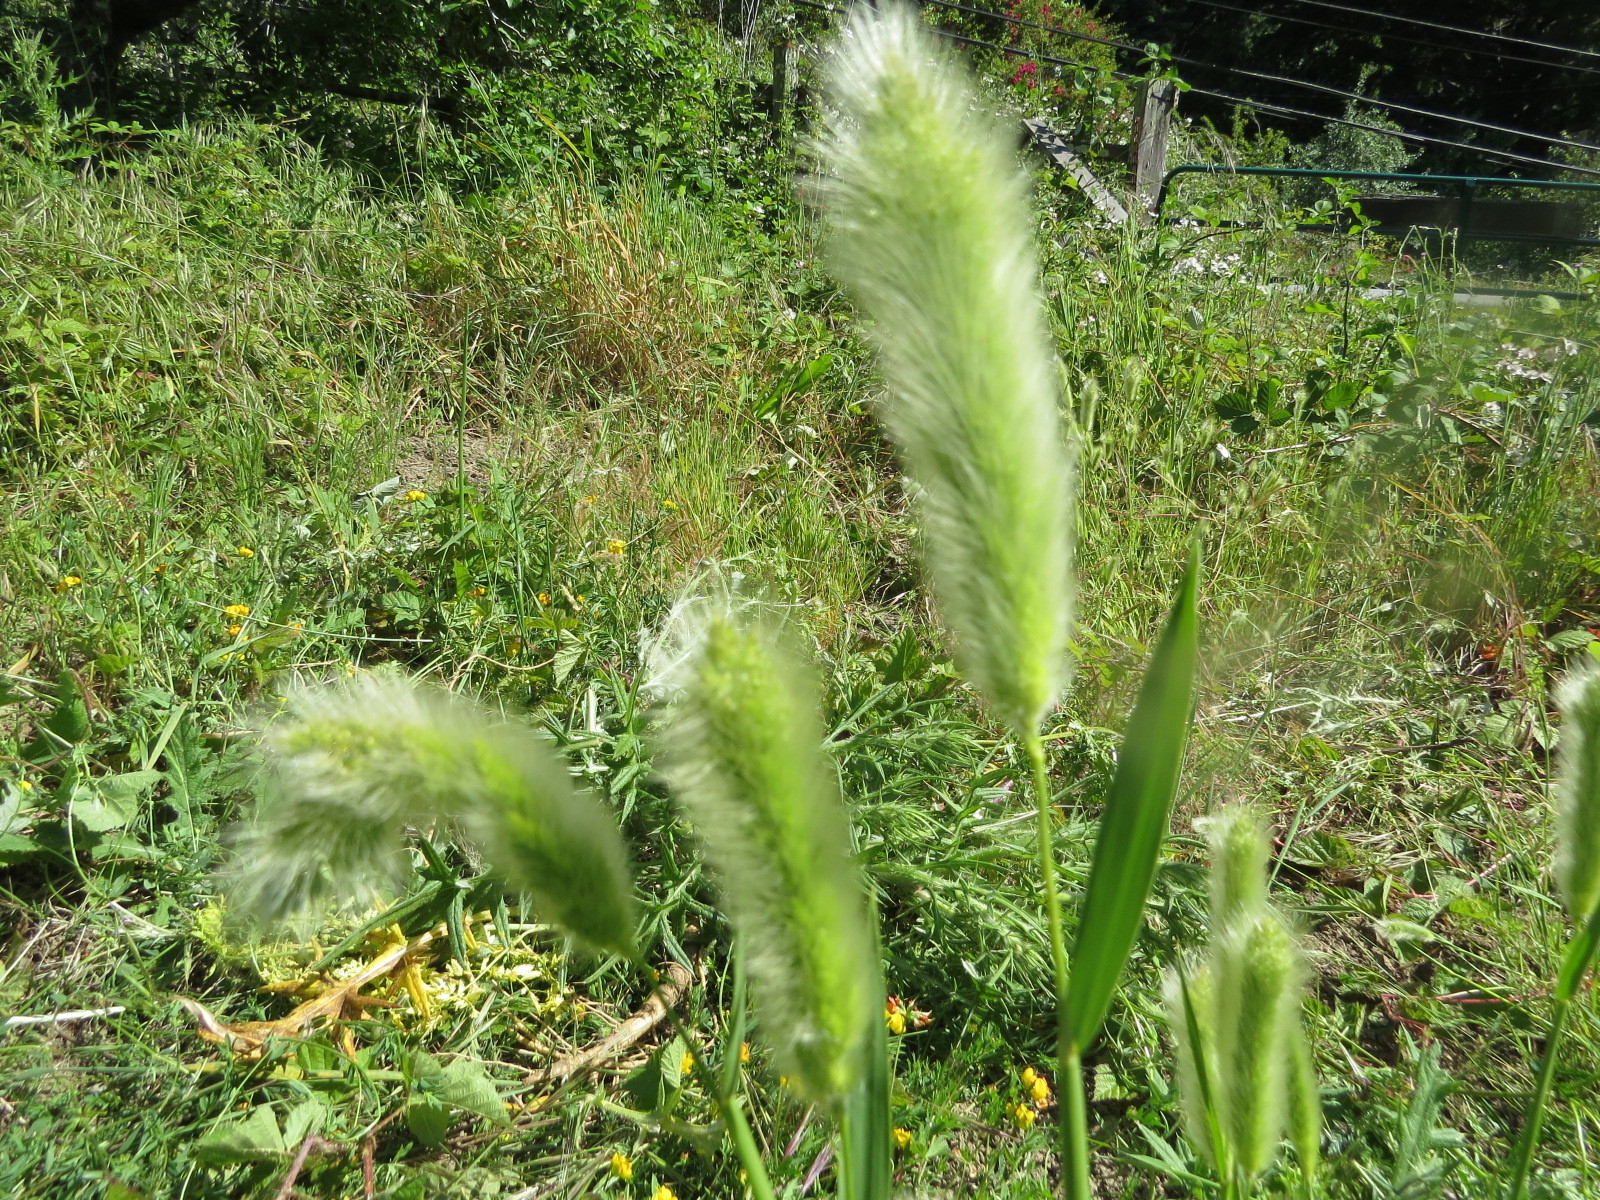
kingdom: Plantae
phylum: Tracheophyta
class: Liliopsida
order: Poales
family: Poaceae
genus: Polypogon
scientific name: Polypogon monspeliensis
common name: Annual rabbitsfoot grass
